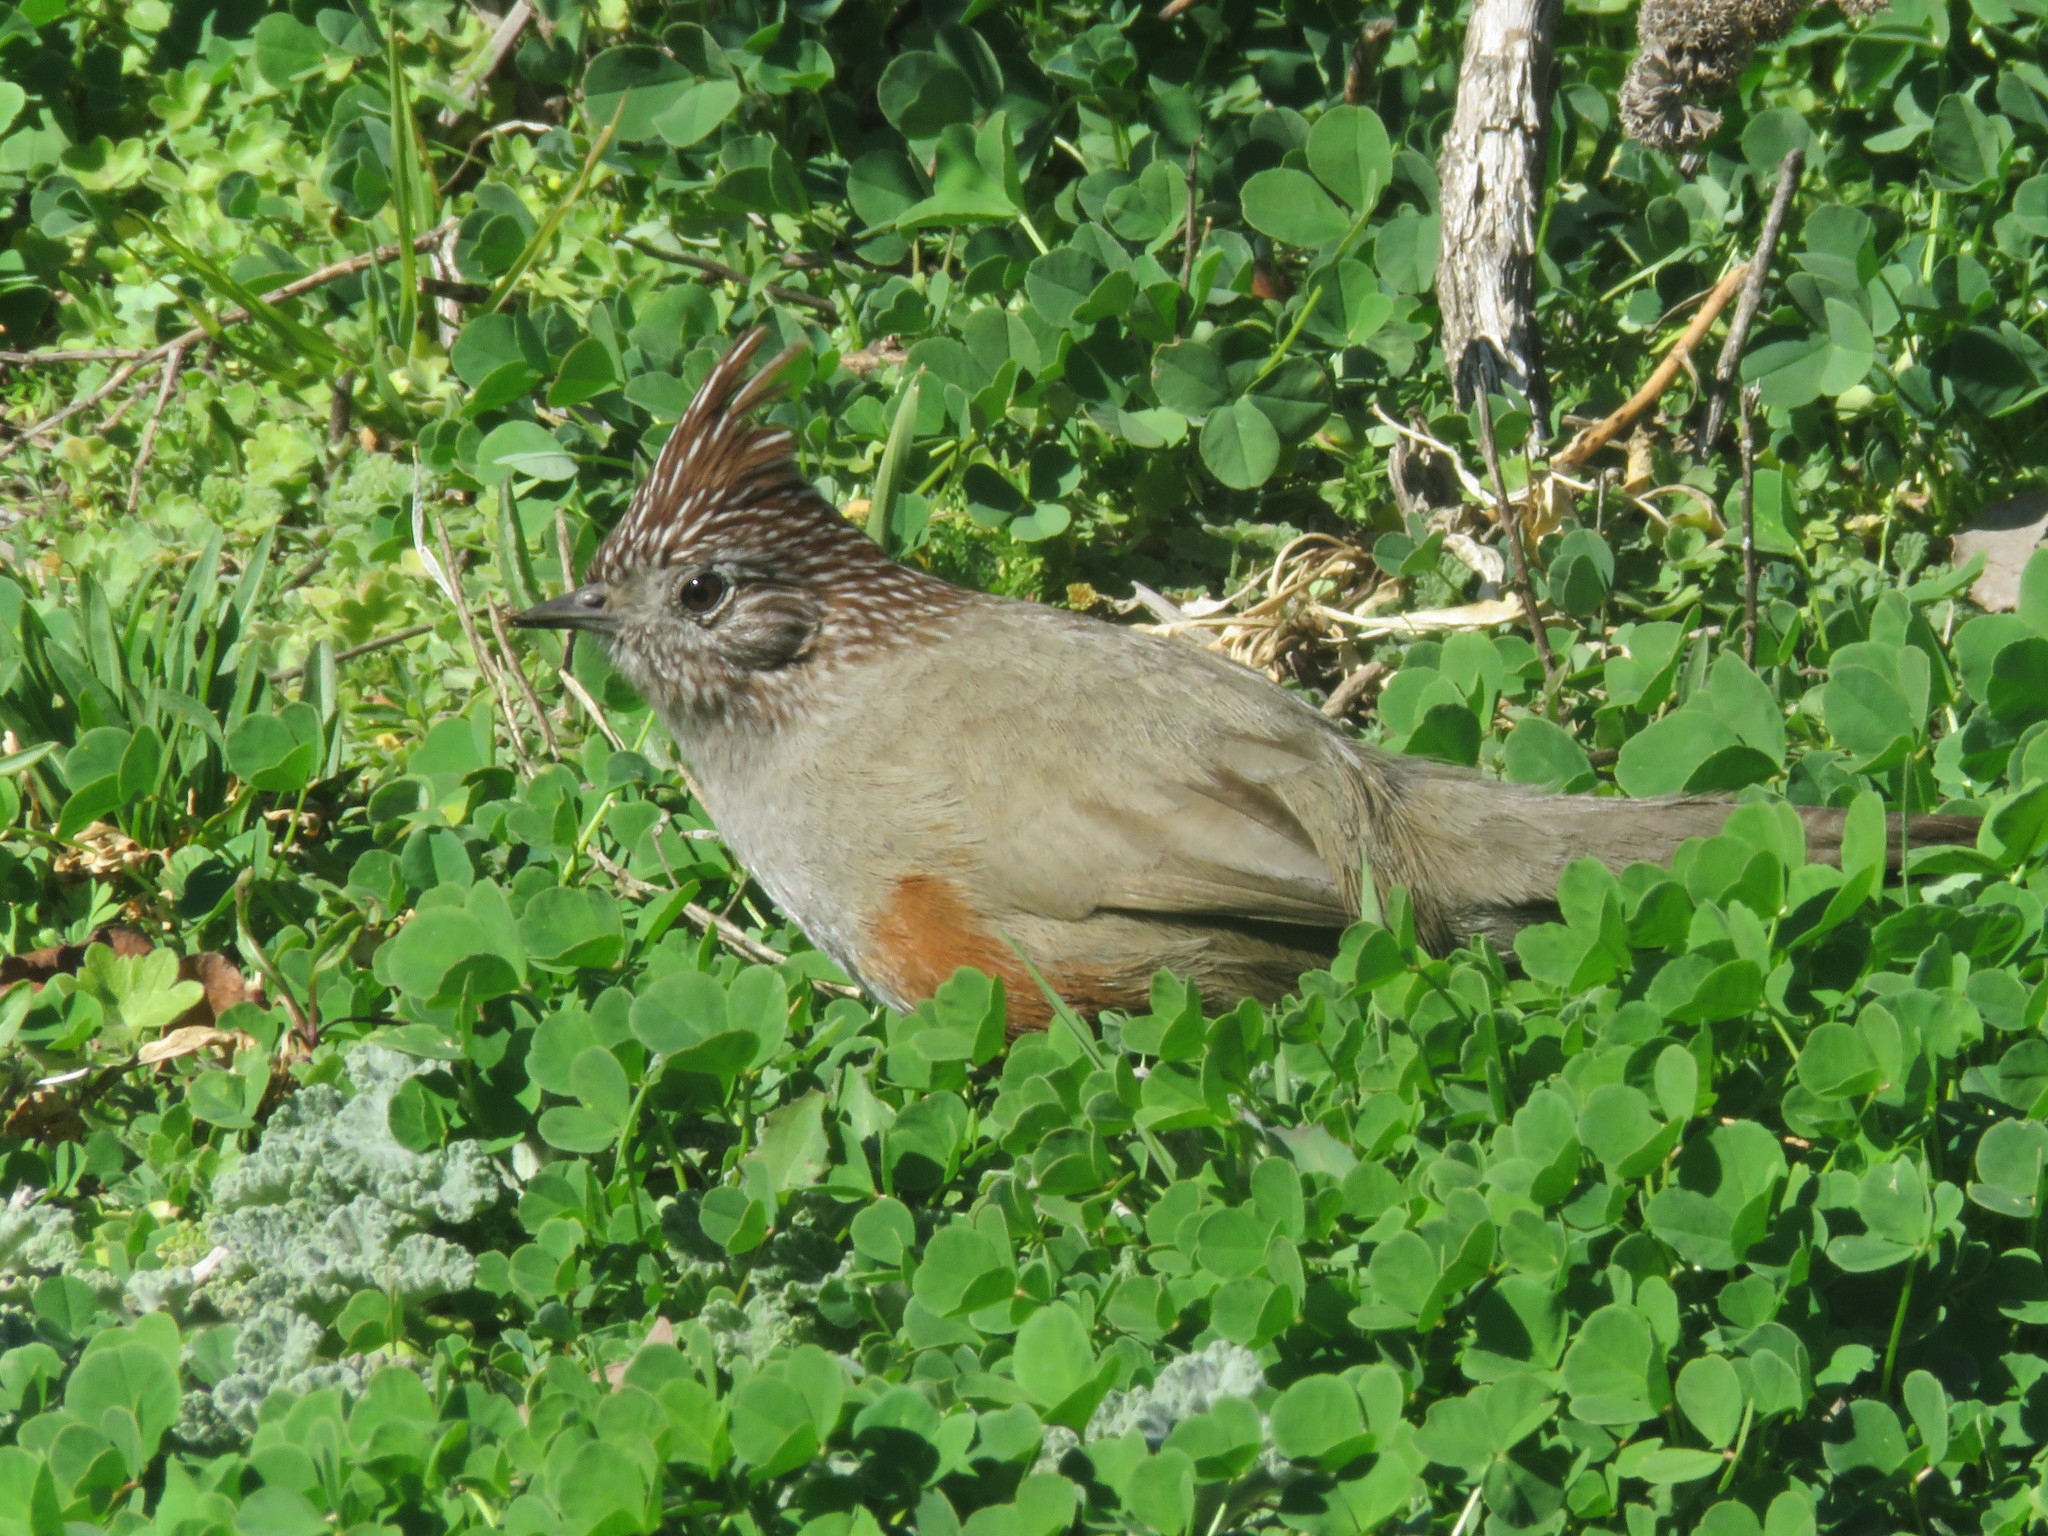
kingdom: Animalia
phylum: Chordata
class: Aves
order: Passeriformes
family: Rhinocryptidae
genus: Rhinocrypta
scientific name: Rhinocrypta lanceolata
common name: Crested gallito
